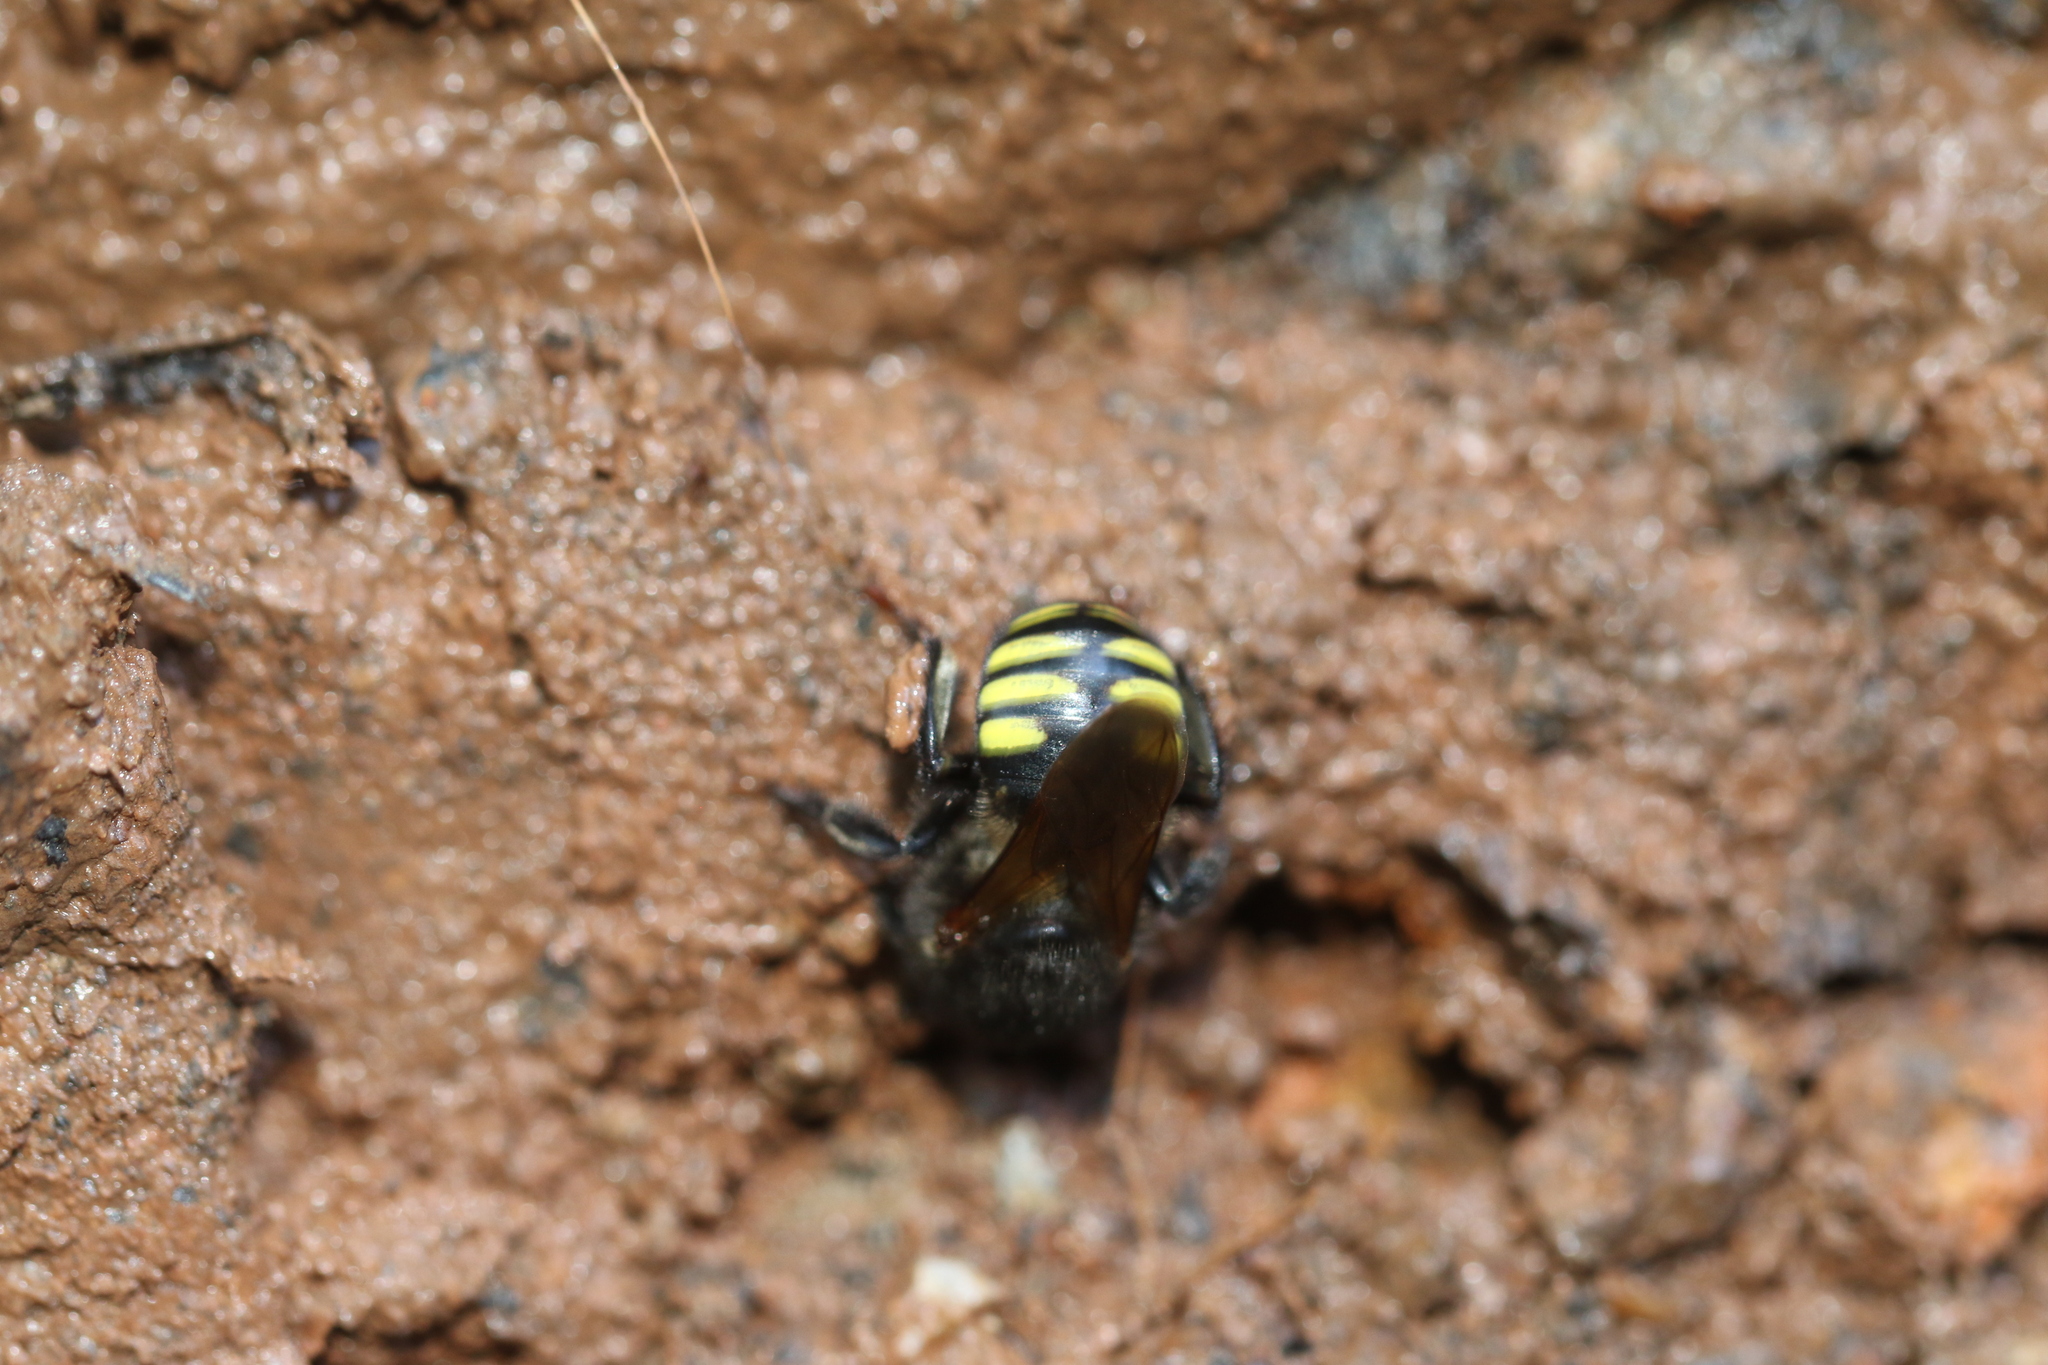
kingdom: Animalia
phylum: Arthropoda
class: Insecta
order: Hymenoptera
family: Apidae
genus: Melipona
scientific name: Melipona quadrifasciata
